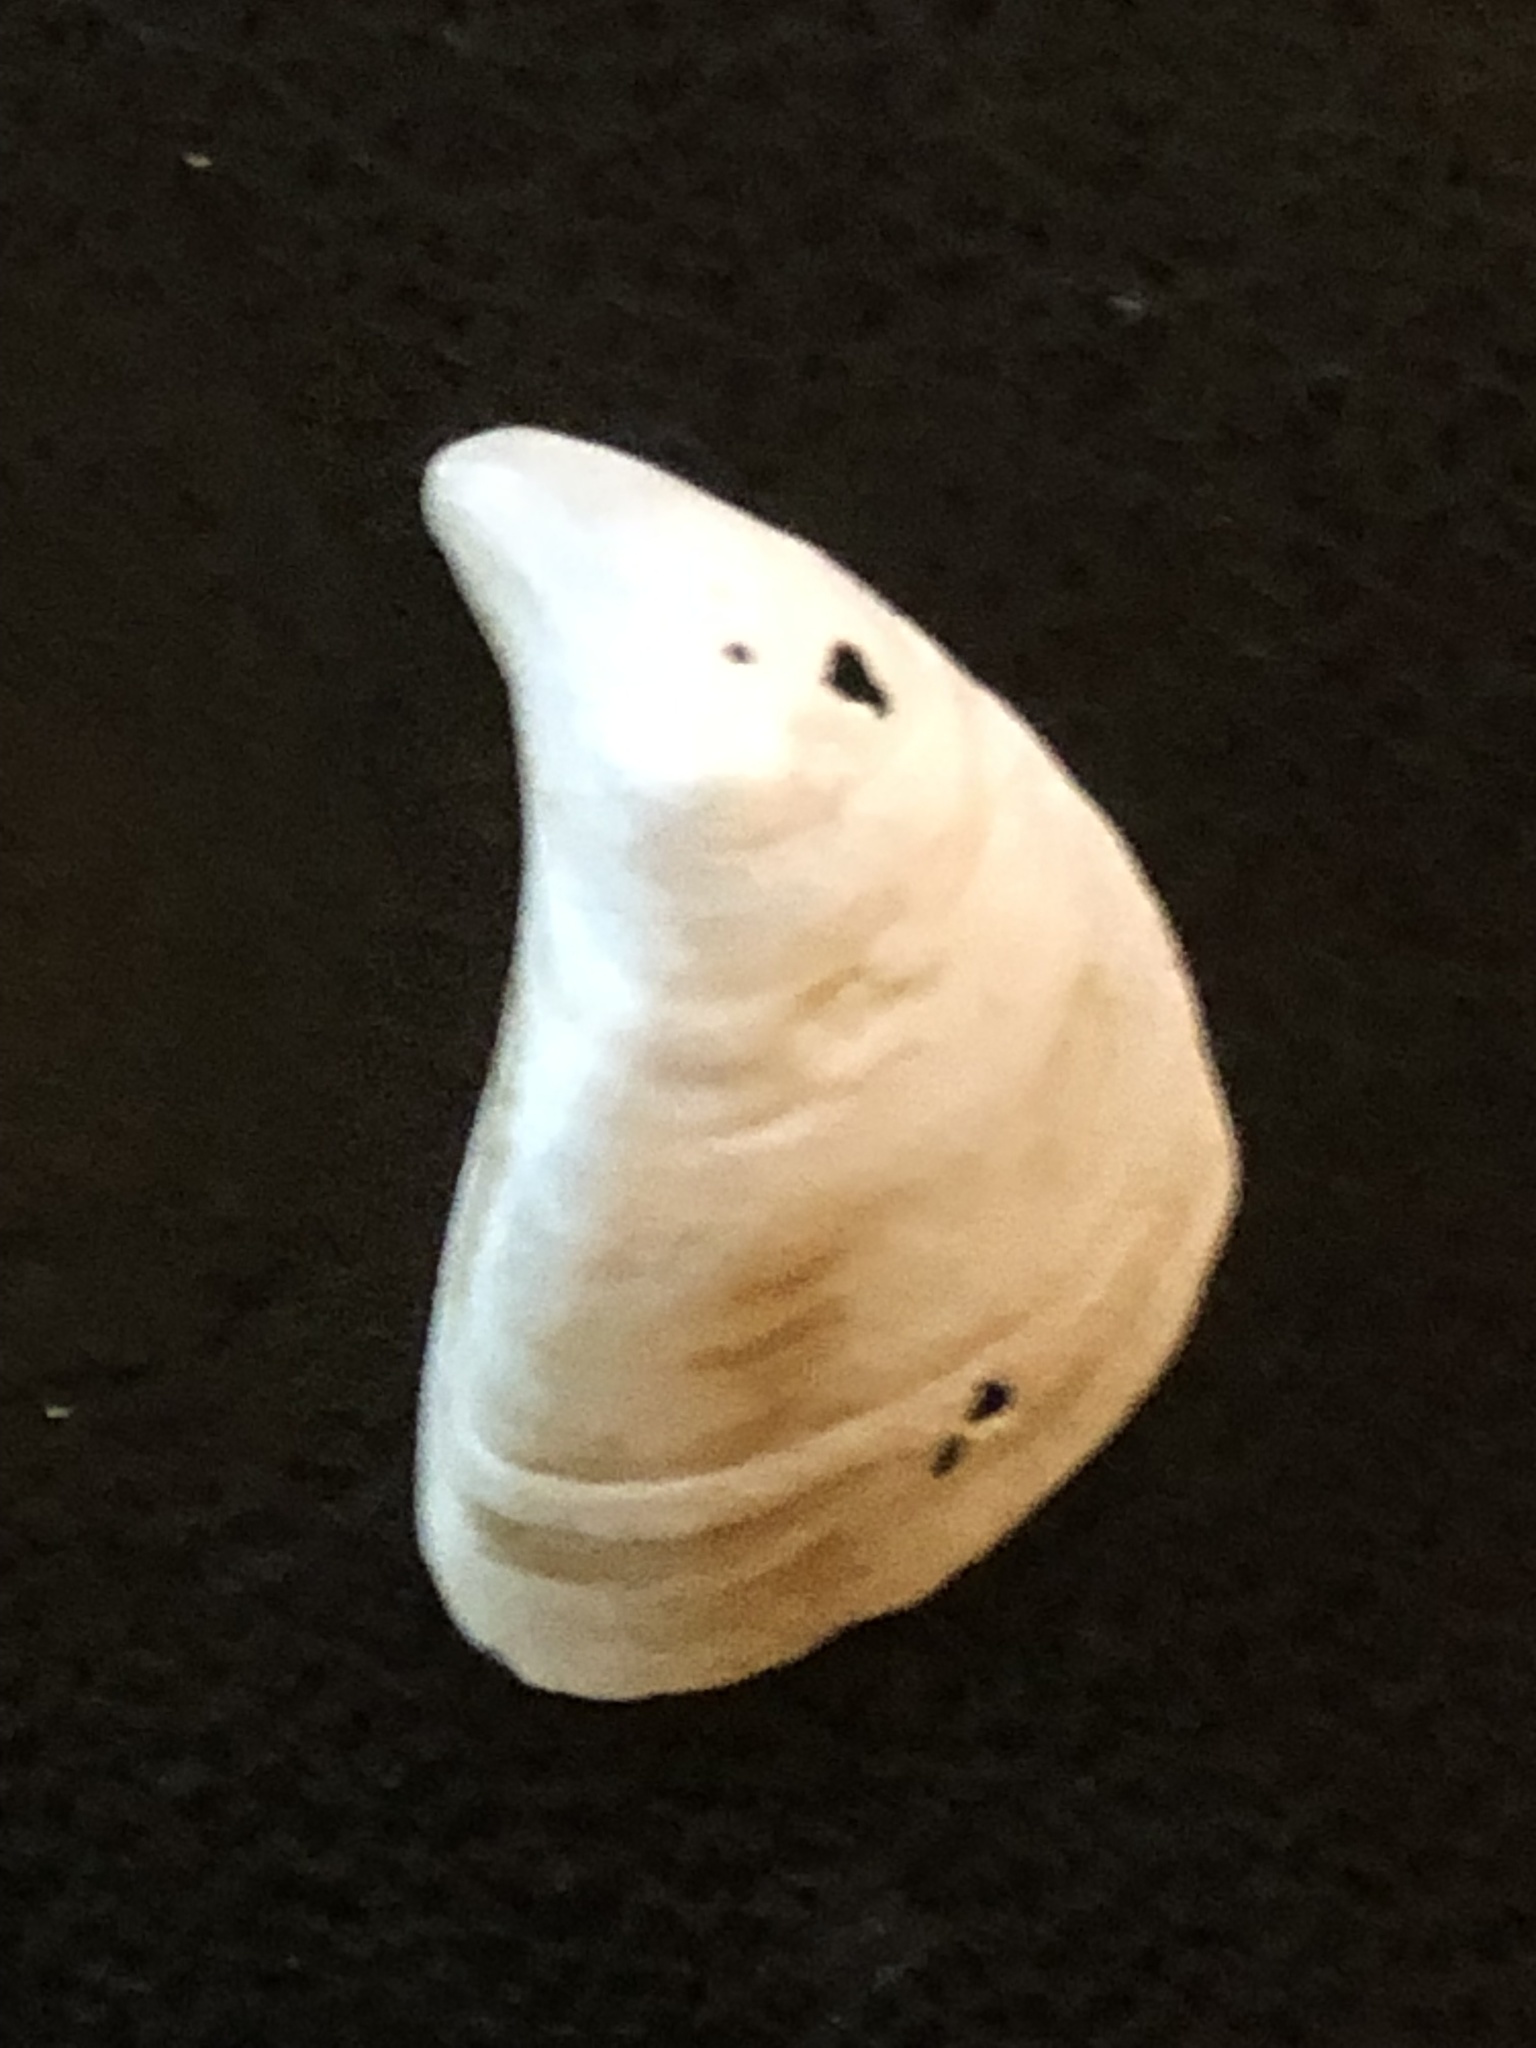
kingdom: Animalia
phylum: Mollusca
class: Bivalvia
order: Myida
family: Dreissenidae
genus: Dreissena
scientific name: Dreissena bugensis
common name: Quagga mussel
